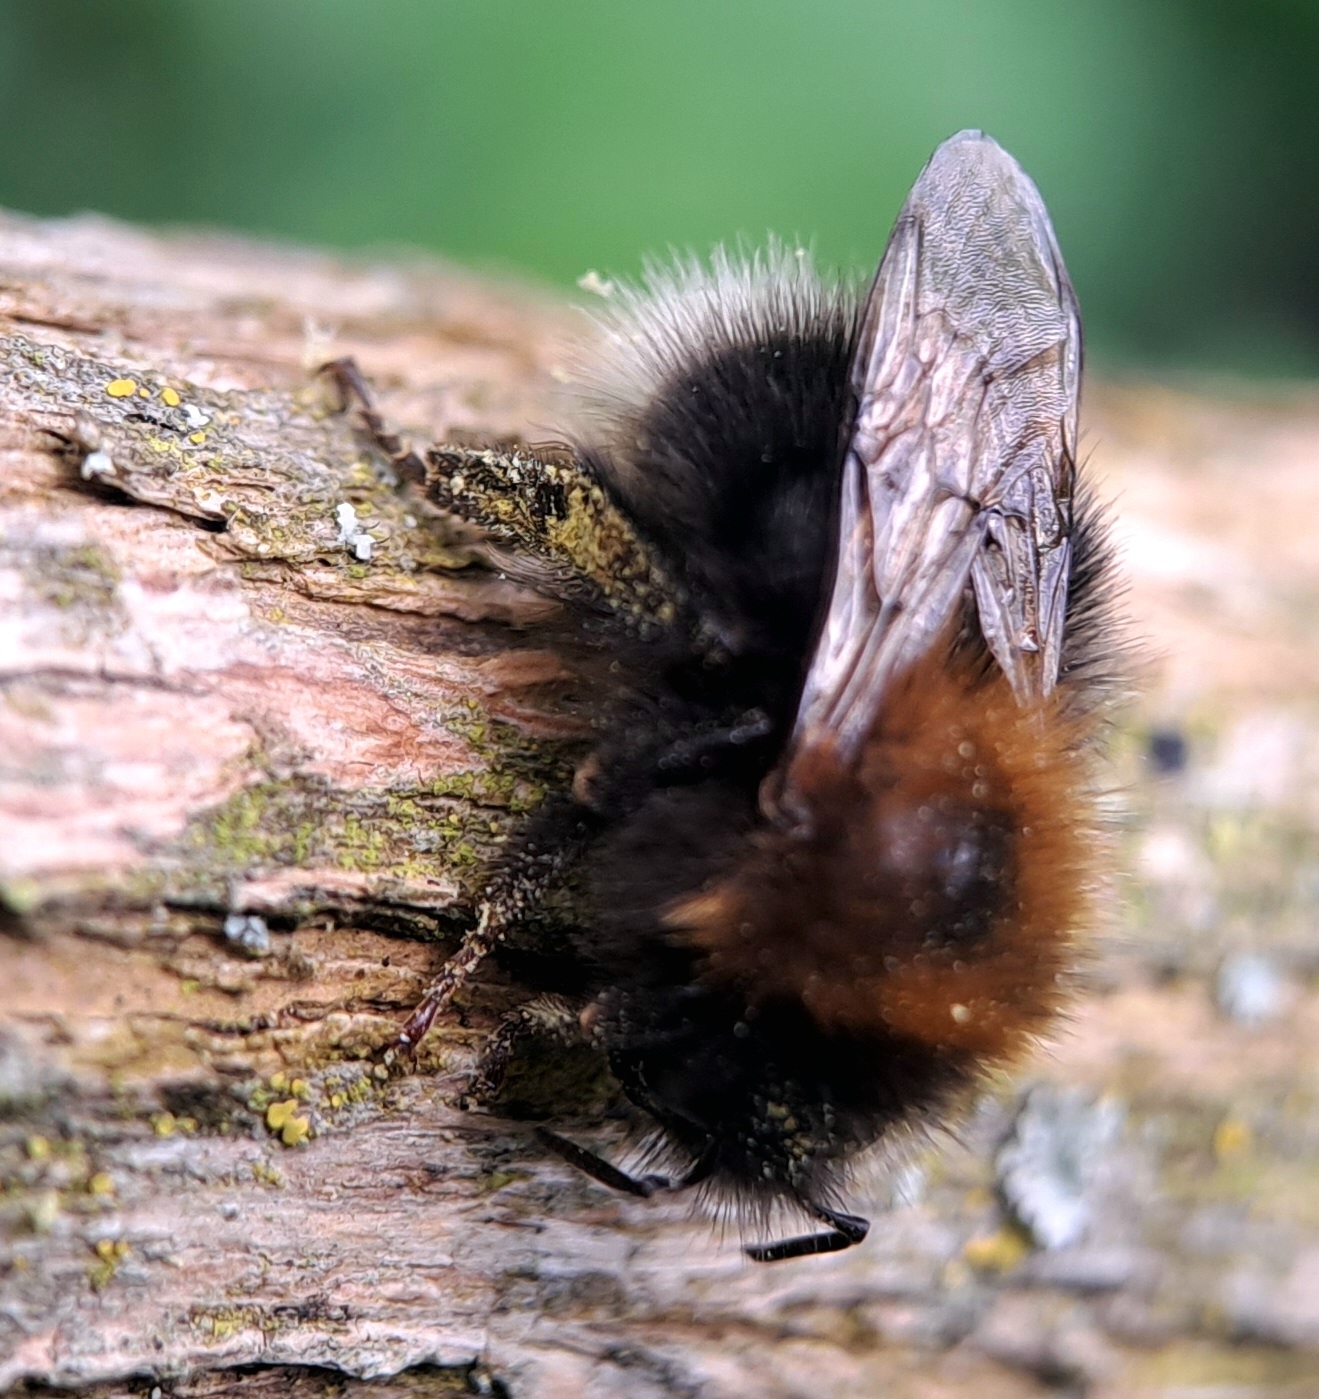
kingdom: Animalia
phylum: Arthropoda
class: Insecta
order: Hymenoptera
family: Apidae
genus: Bombus
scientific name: Bombus hypnorum
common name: New garden bumblebee
